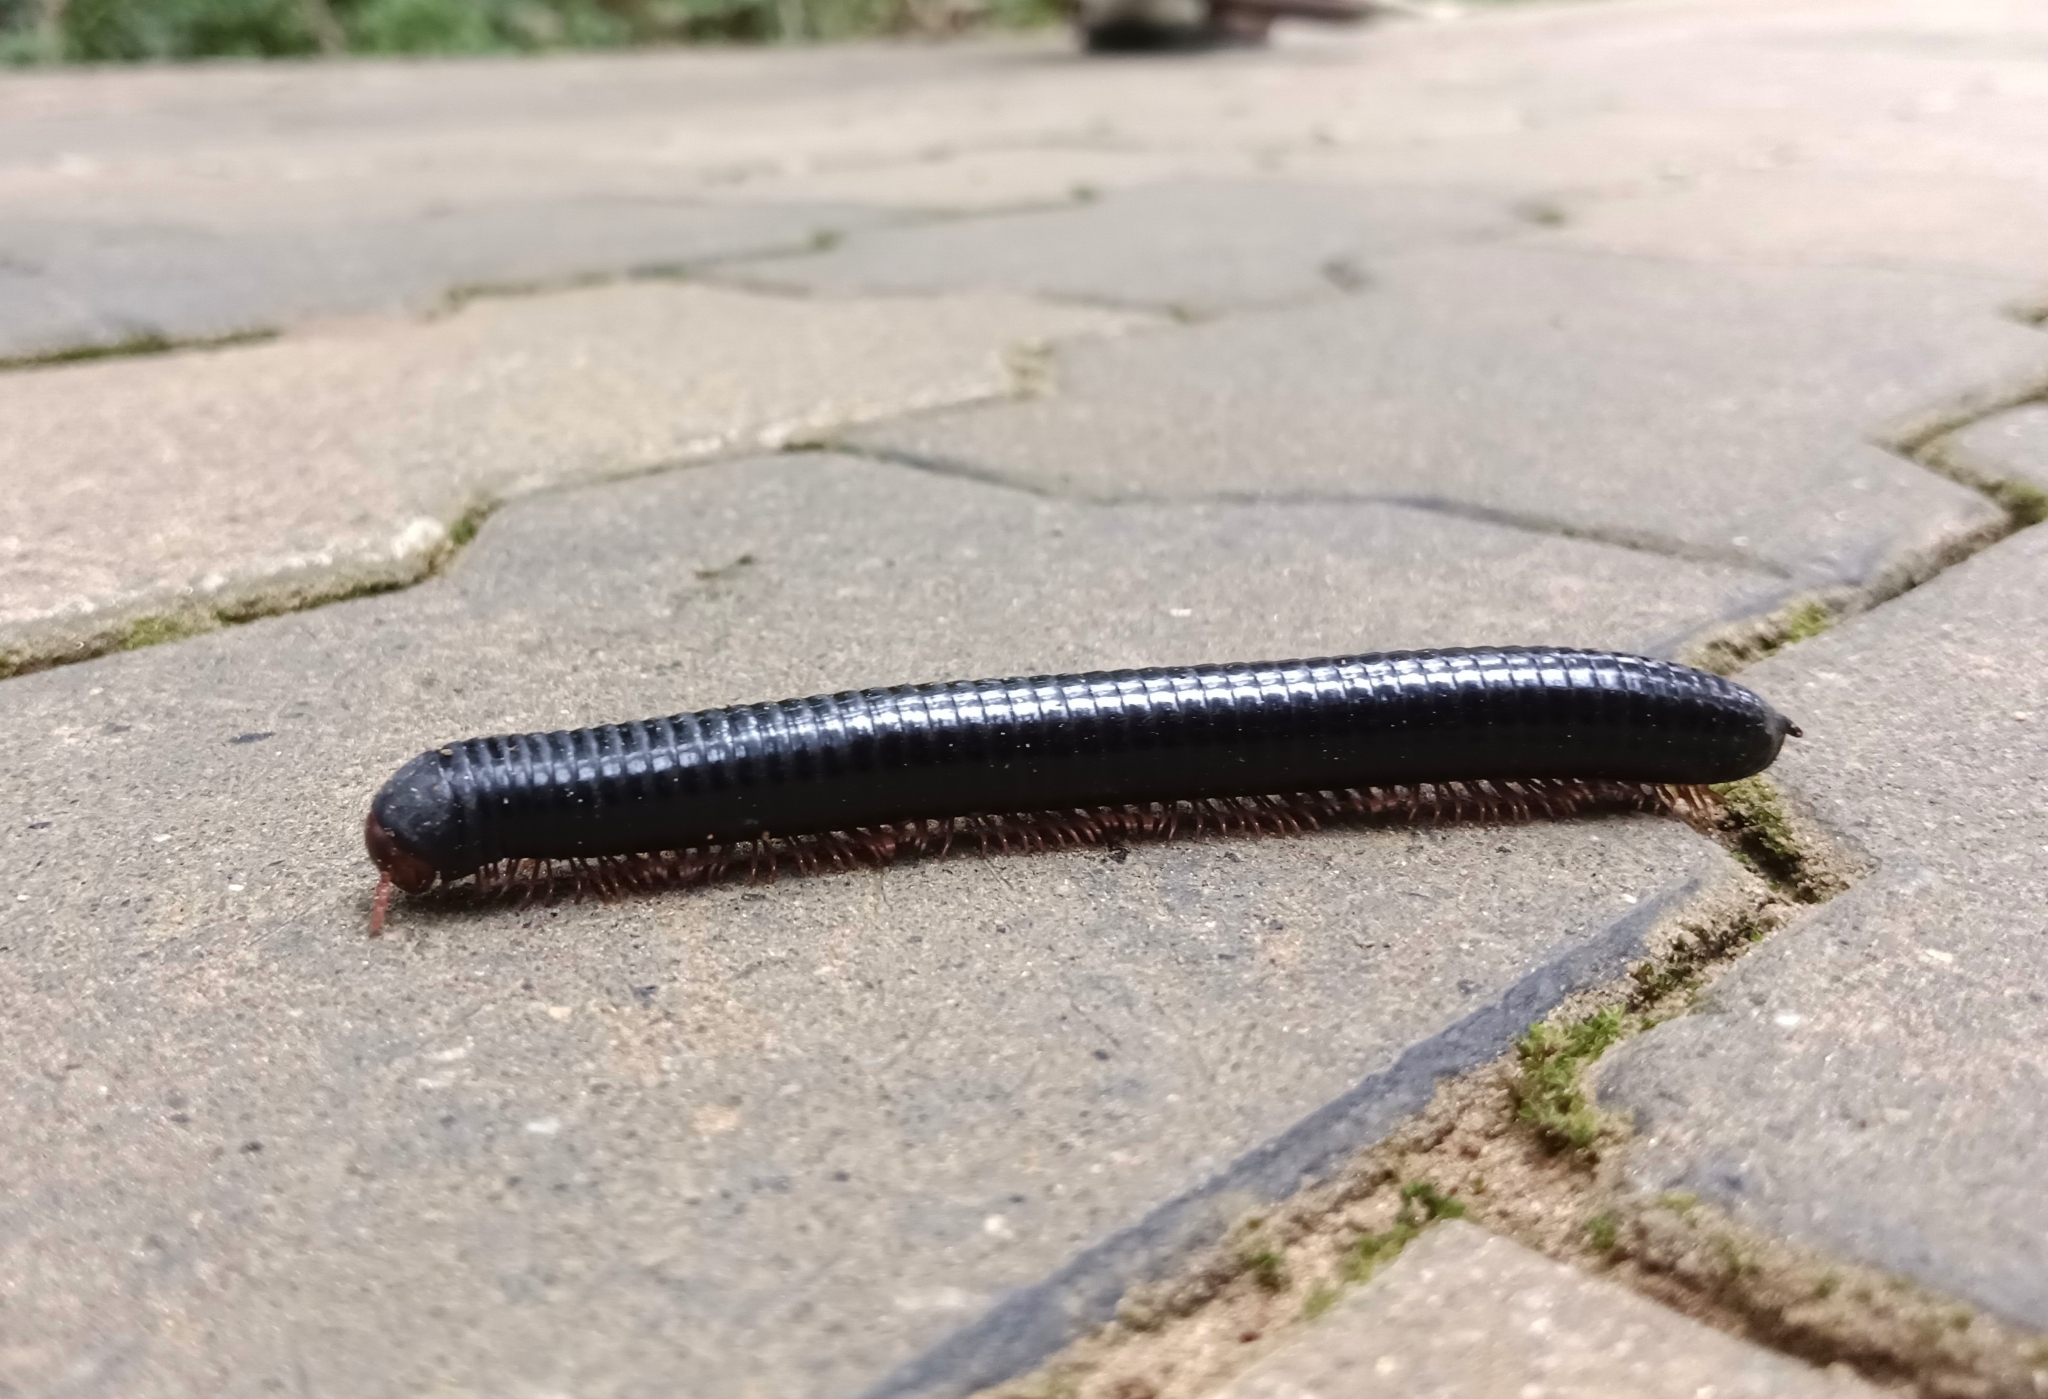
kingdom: Animalia
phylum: Arthropoda
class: Diplopoda
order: Spirostreptida
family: Harpagophoridae
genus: Phyllogonostreptus
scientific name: Phyllogonostreptus nigrolabiatus
